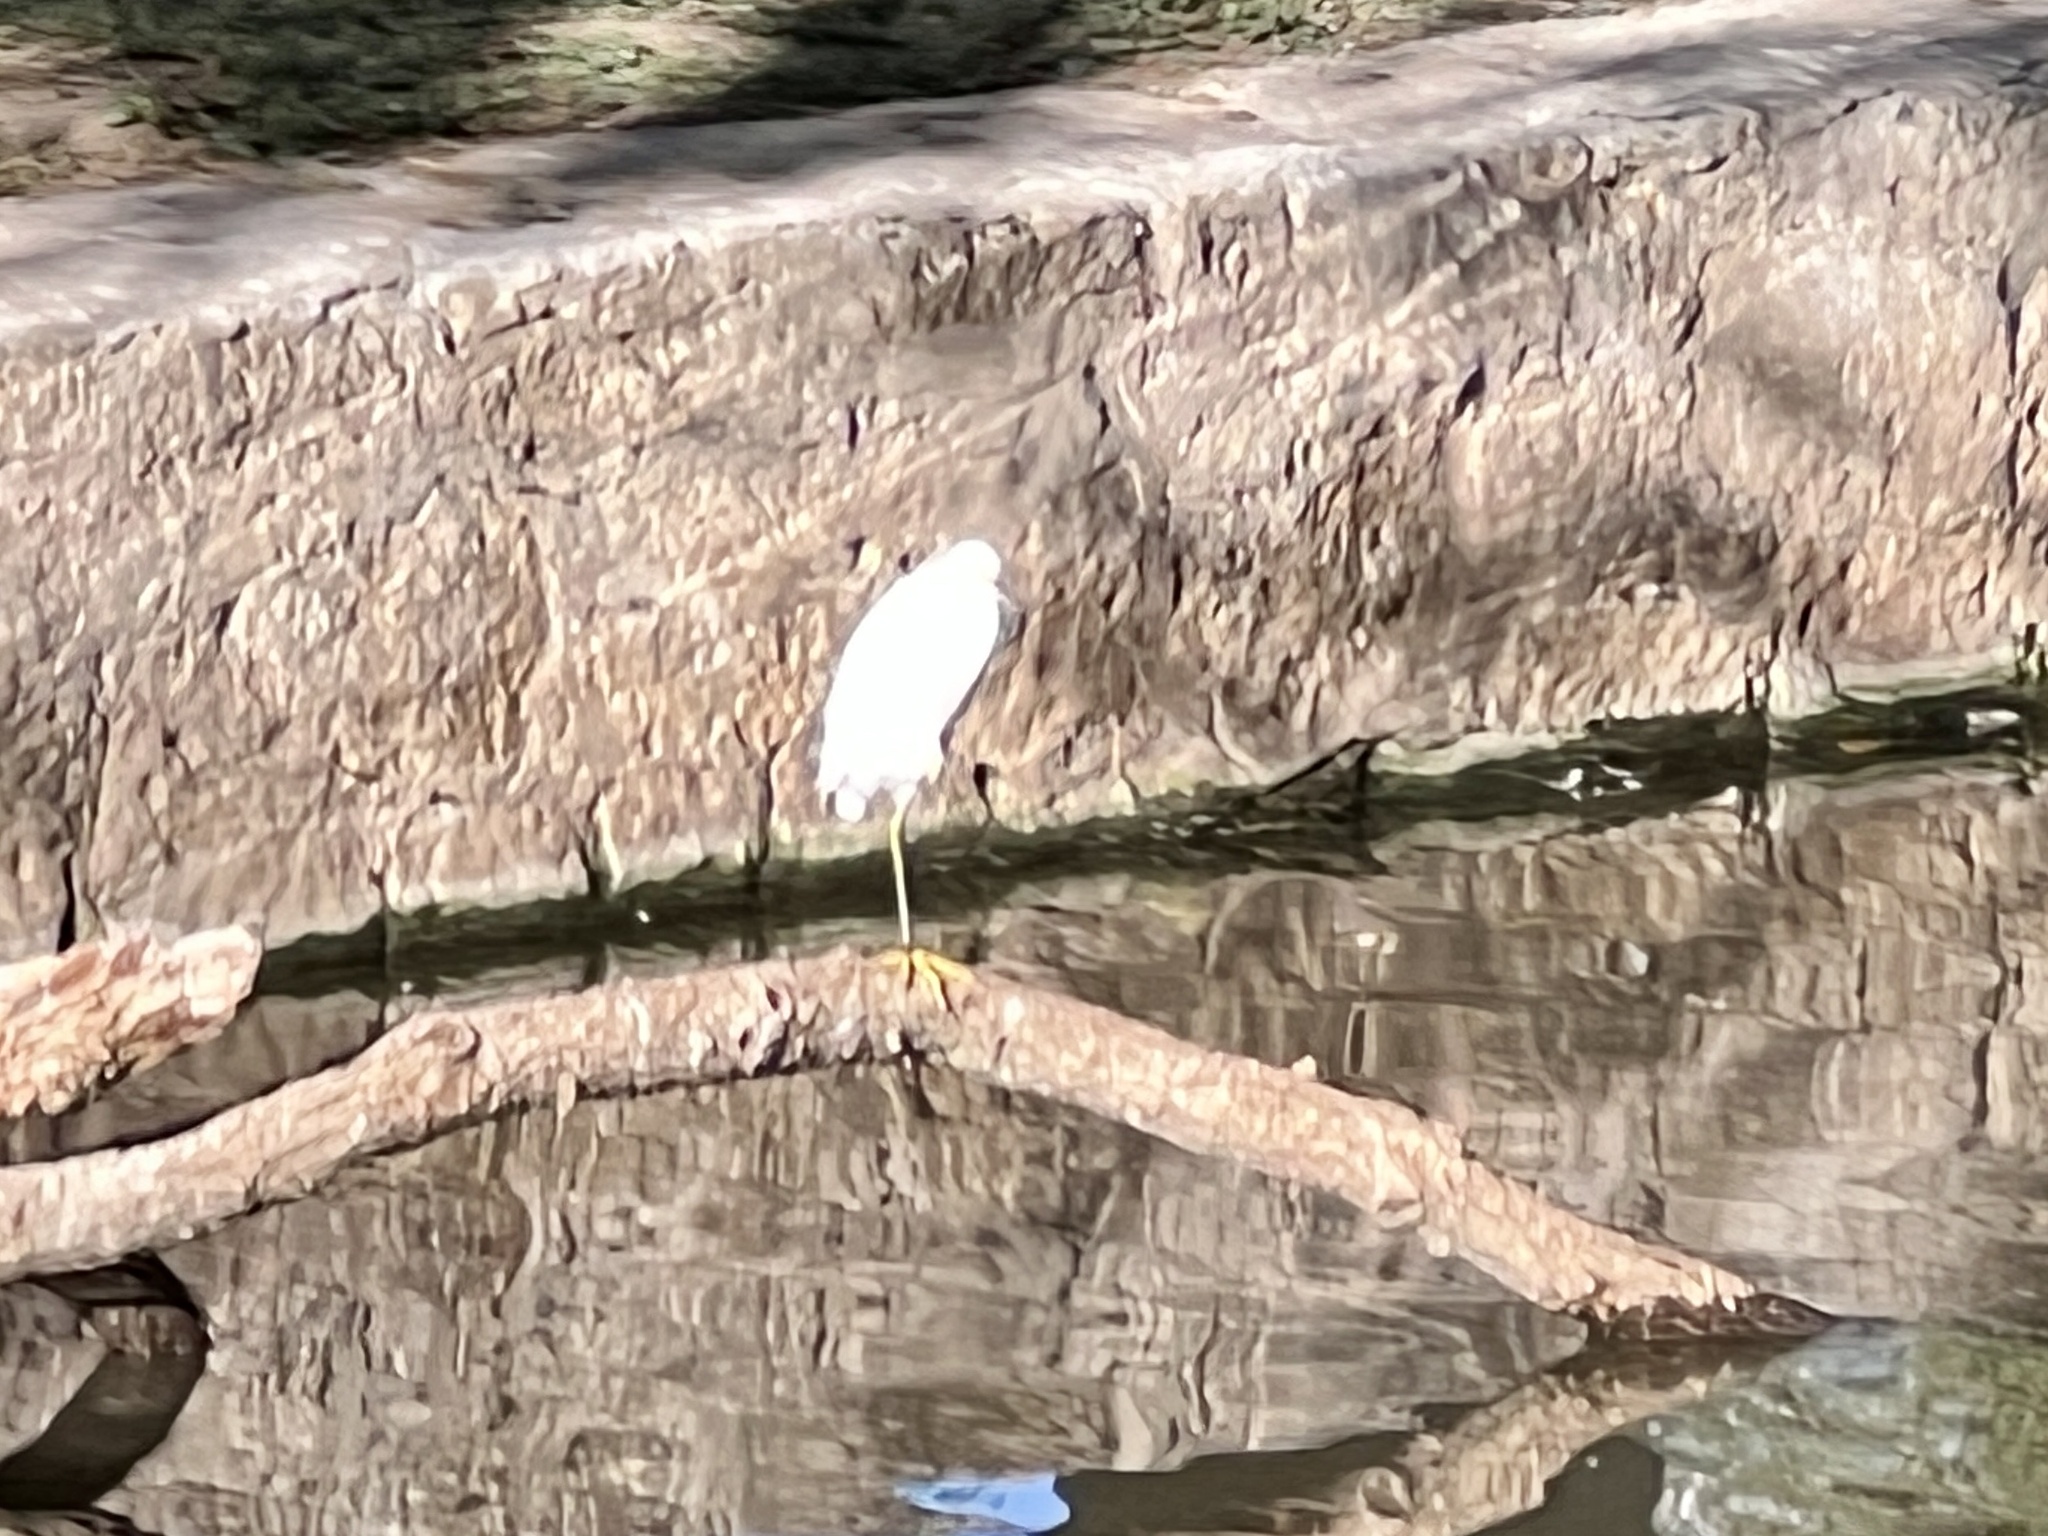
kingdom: Animalia
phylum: Chordata
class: Aves
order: Pelecaniformes
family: Ardeidae
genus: Egretta
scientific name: Egretta thula
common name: Snowy egret
